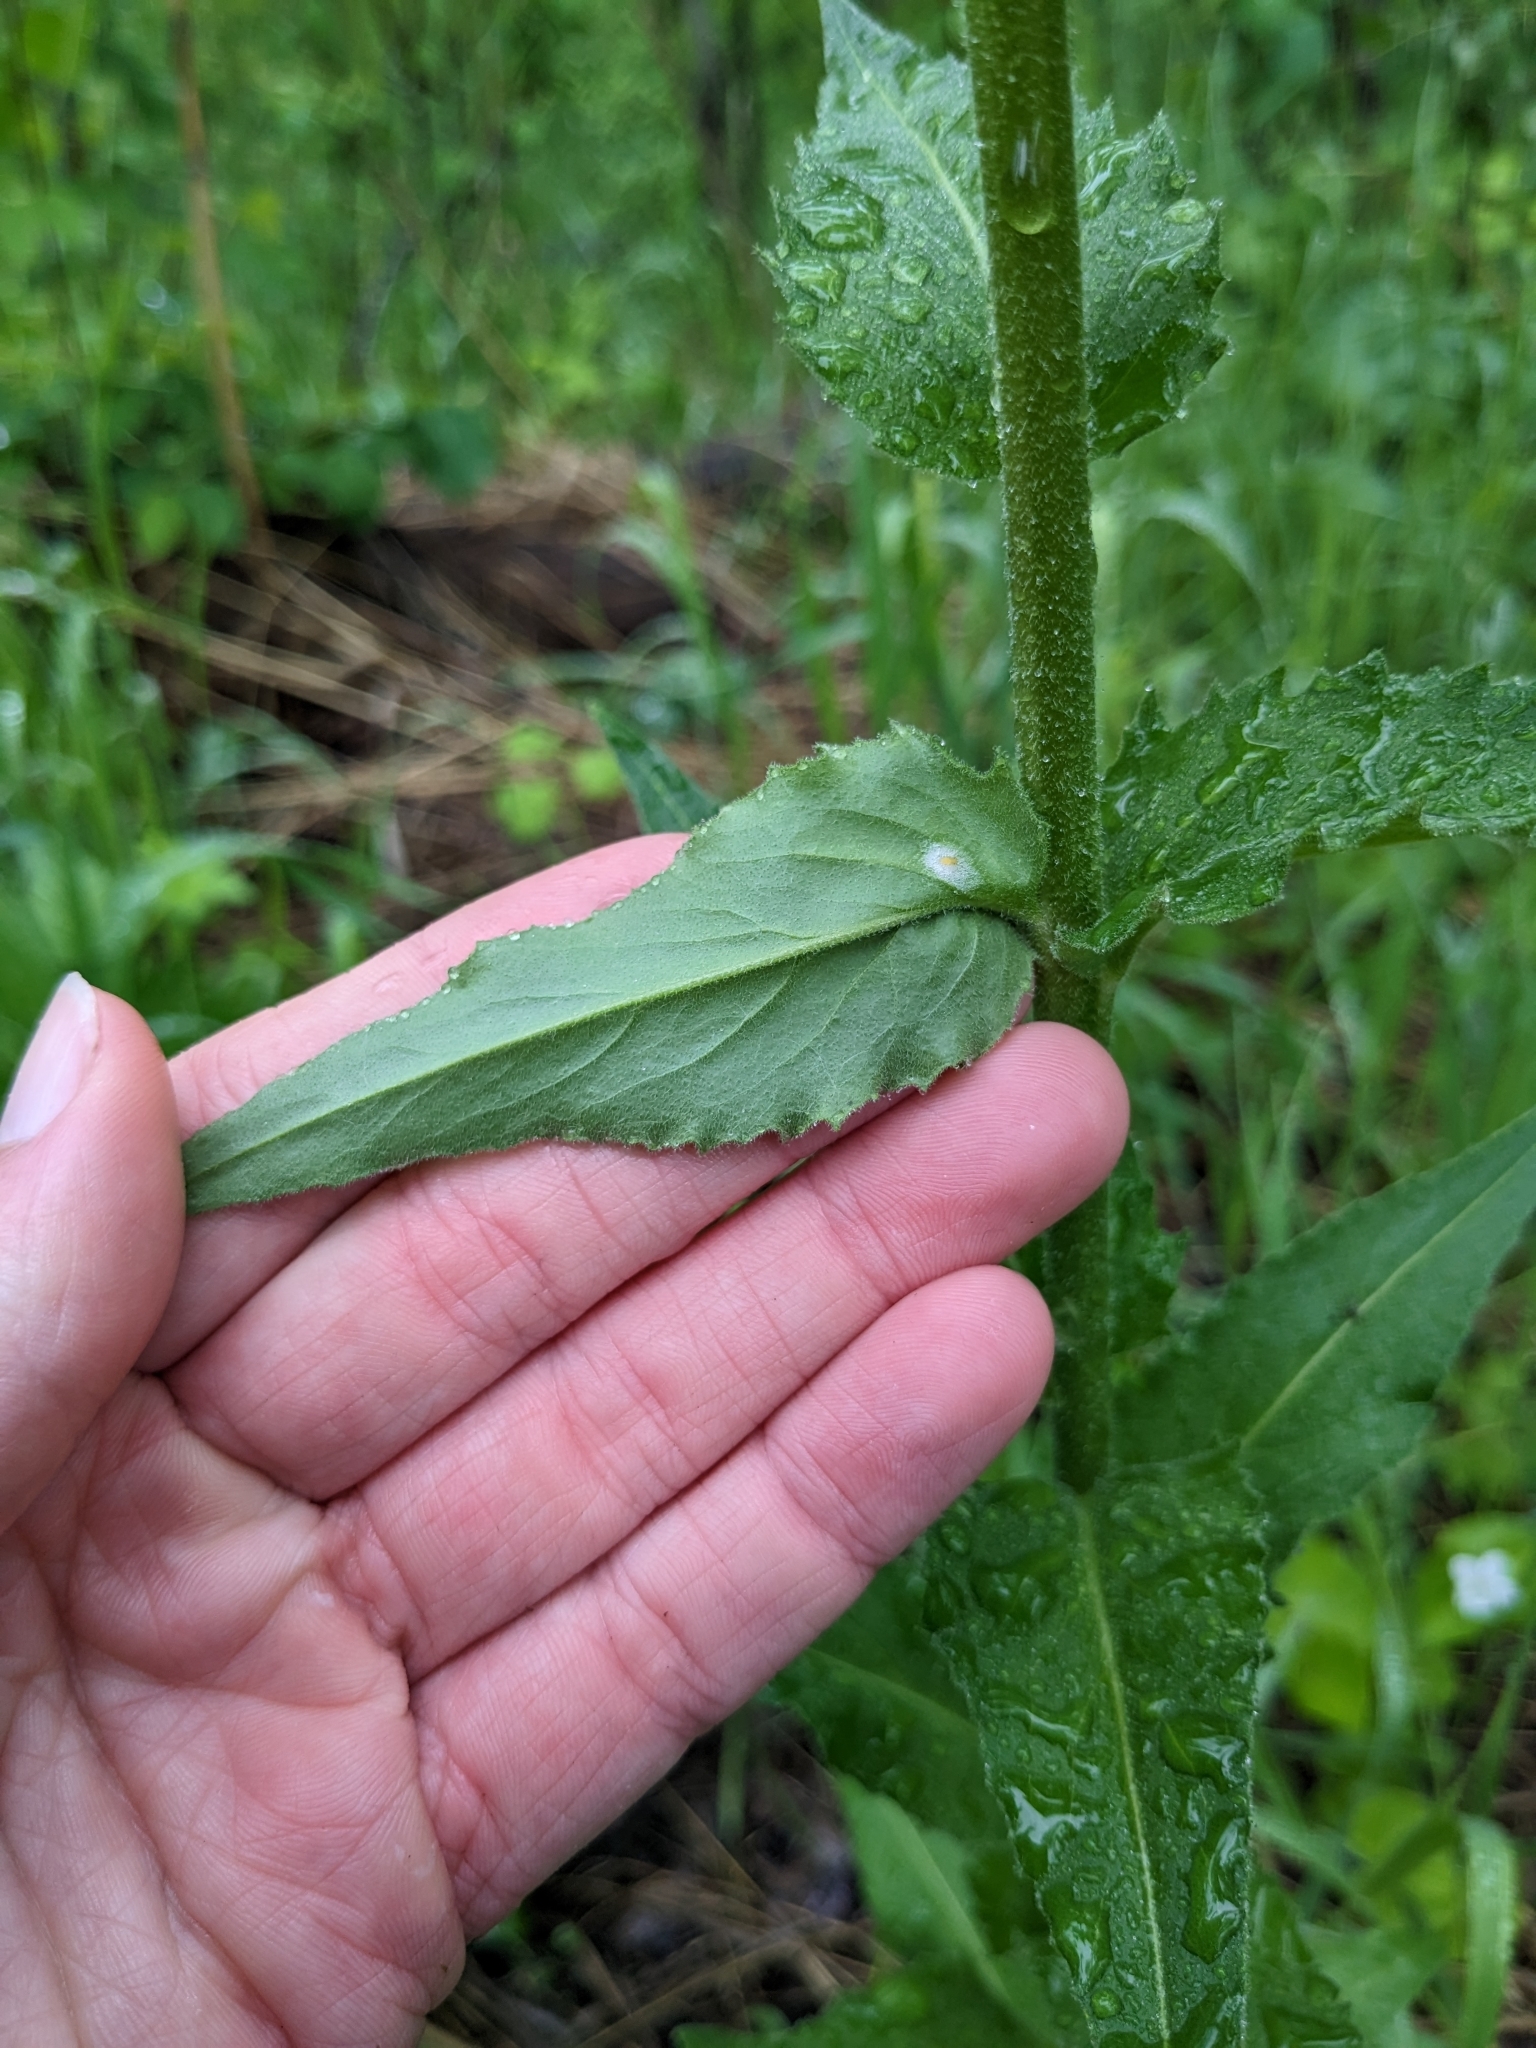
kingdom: Plantae
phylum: Tracheophyta
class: Magnoliopsida
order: Brassicales
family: Brassicaceae
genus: Hesperis
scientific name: Hesperis matronalis
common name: Dame's-violet
